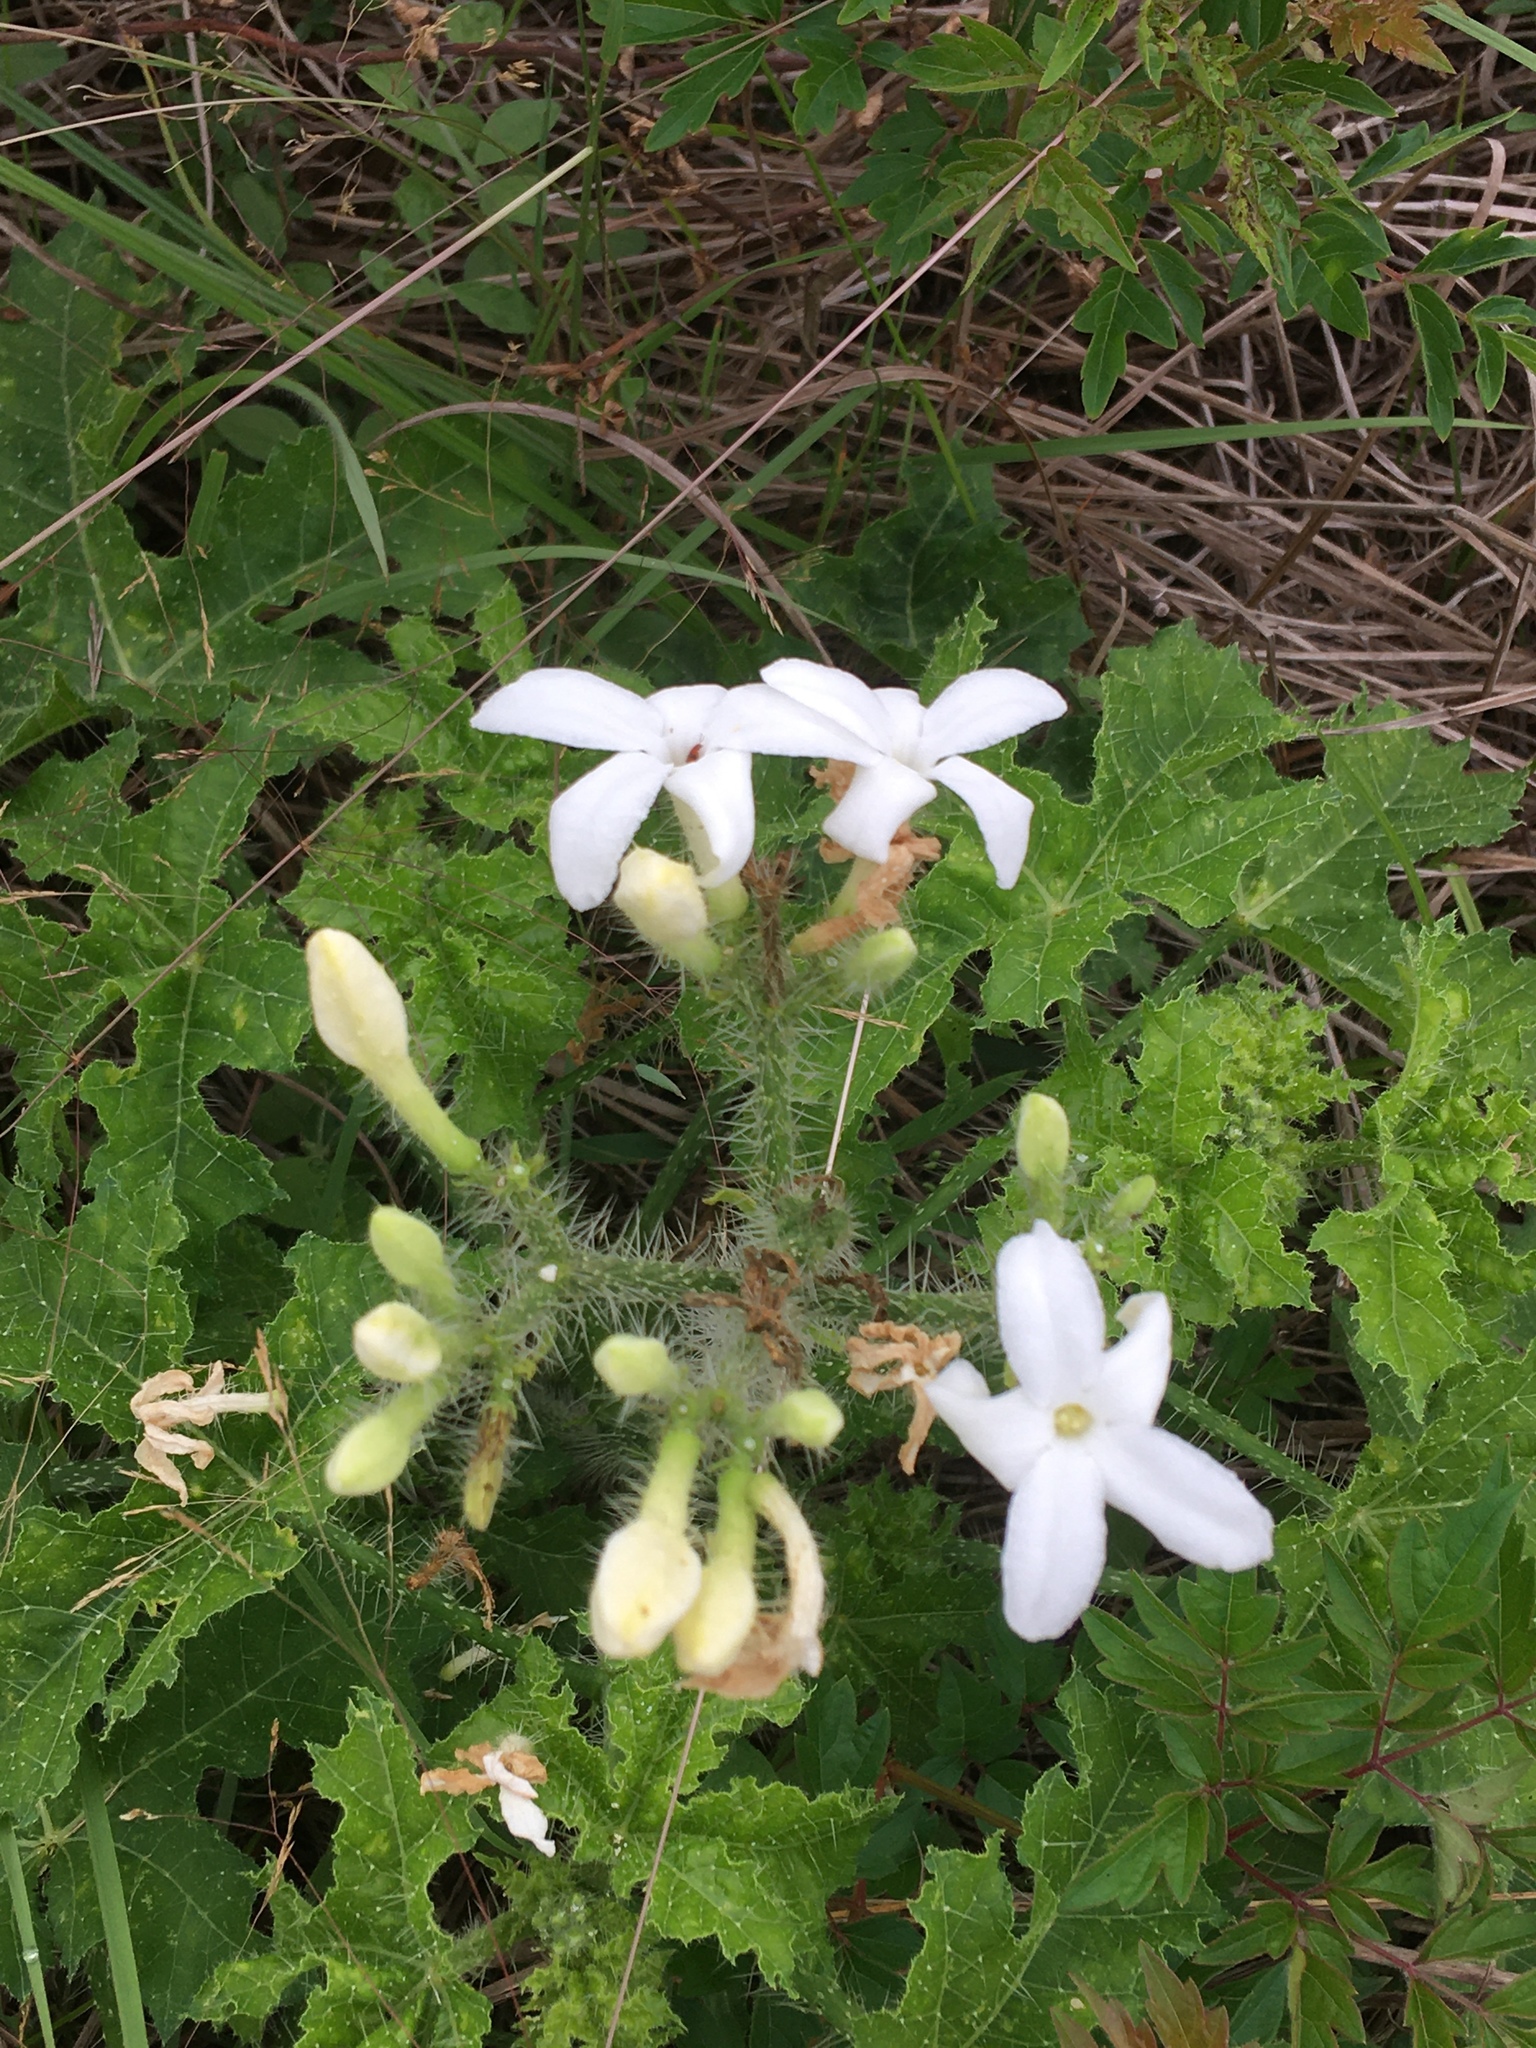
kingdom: Plantae
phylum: Tracheophyta
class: Magnoliopsida
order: Malpighiales
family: Euphorbiaceae
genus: Cnidoscolus
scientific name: Cnidoscolus texanus
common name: Texas bull-nettle
